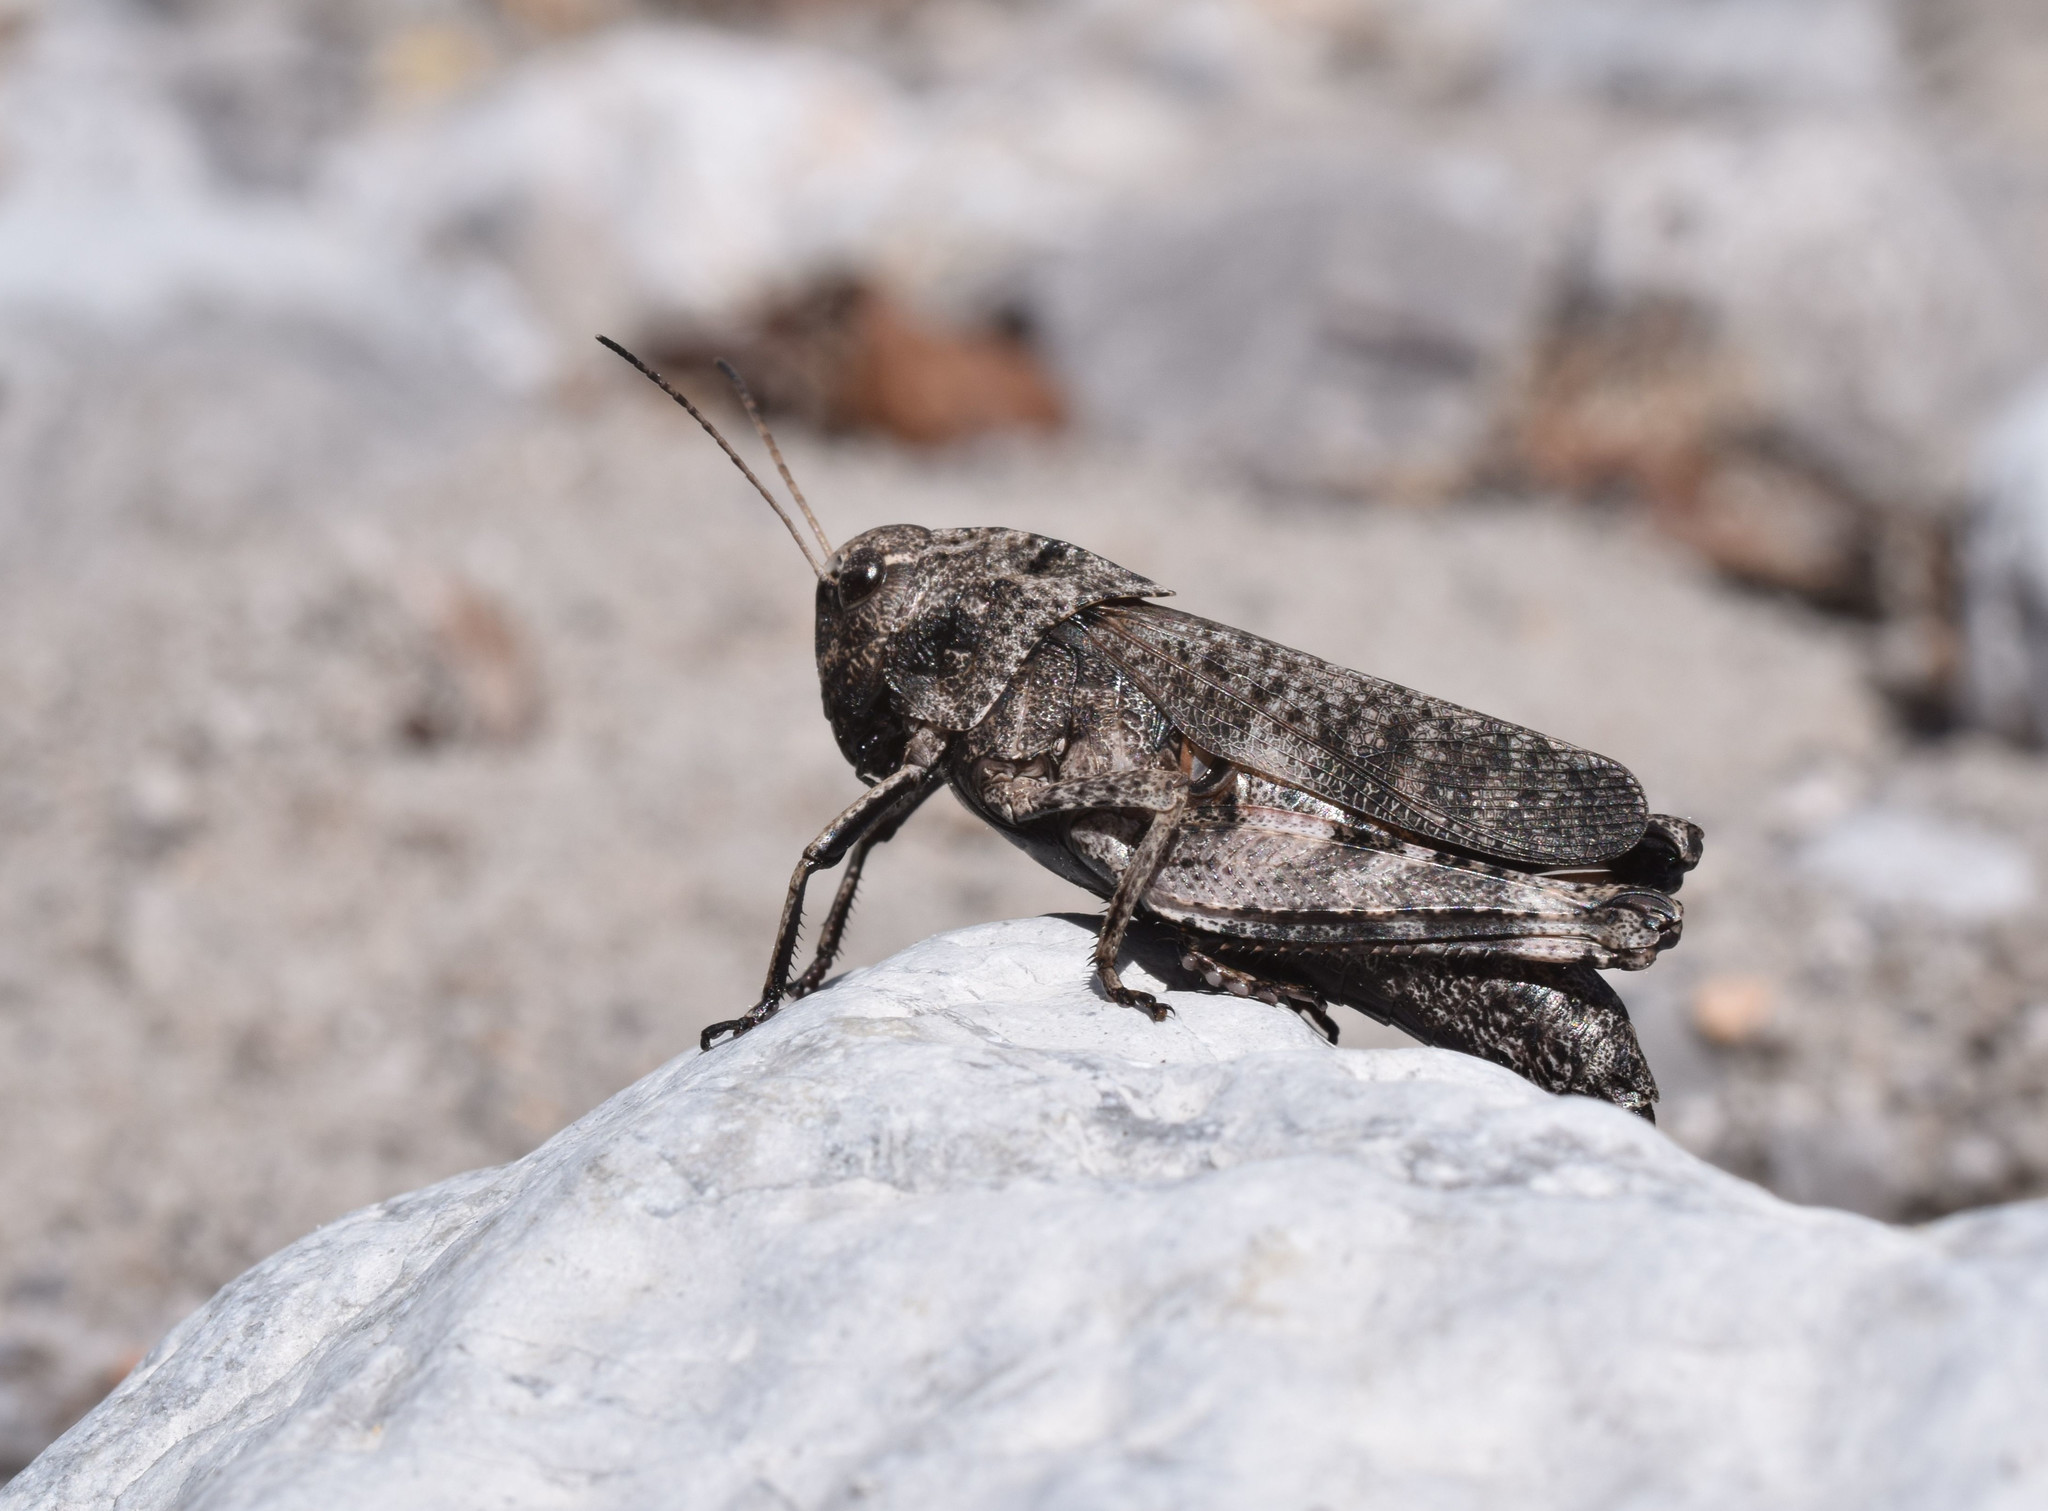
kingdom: Animalia
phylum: Arthropoda
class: Insecta
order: Orthoptera
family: Acrididae
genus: Psophus
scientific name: Psophus stridulus
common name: Rattle grasshopper
